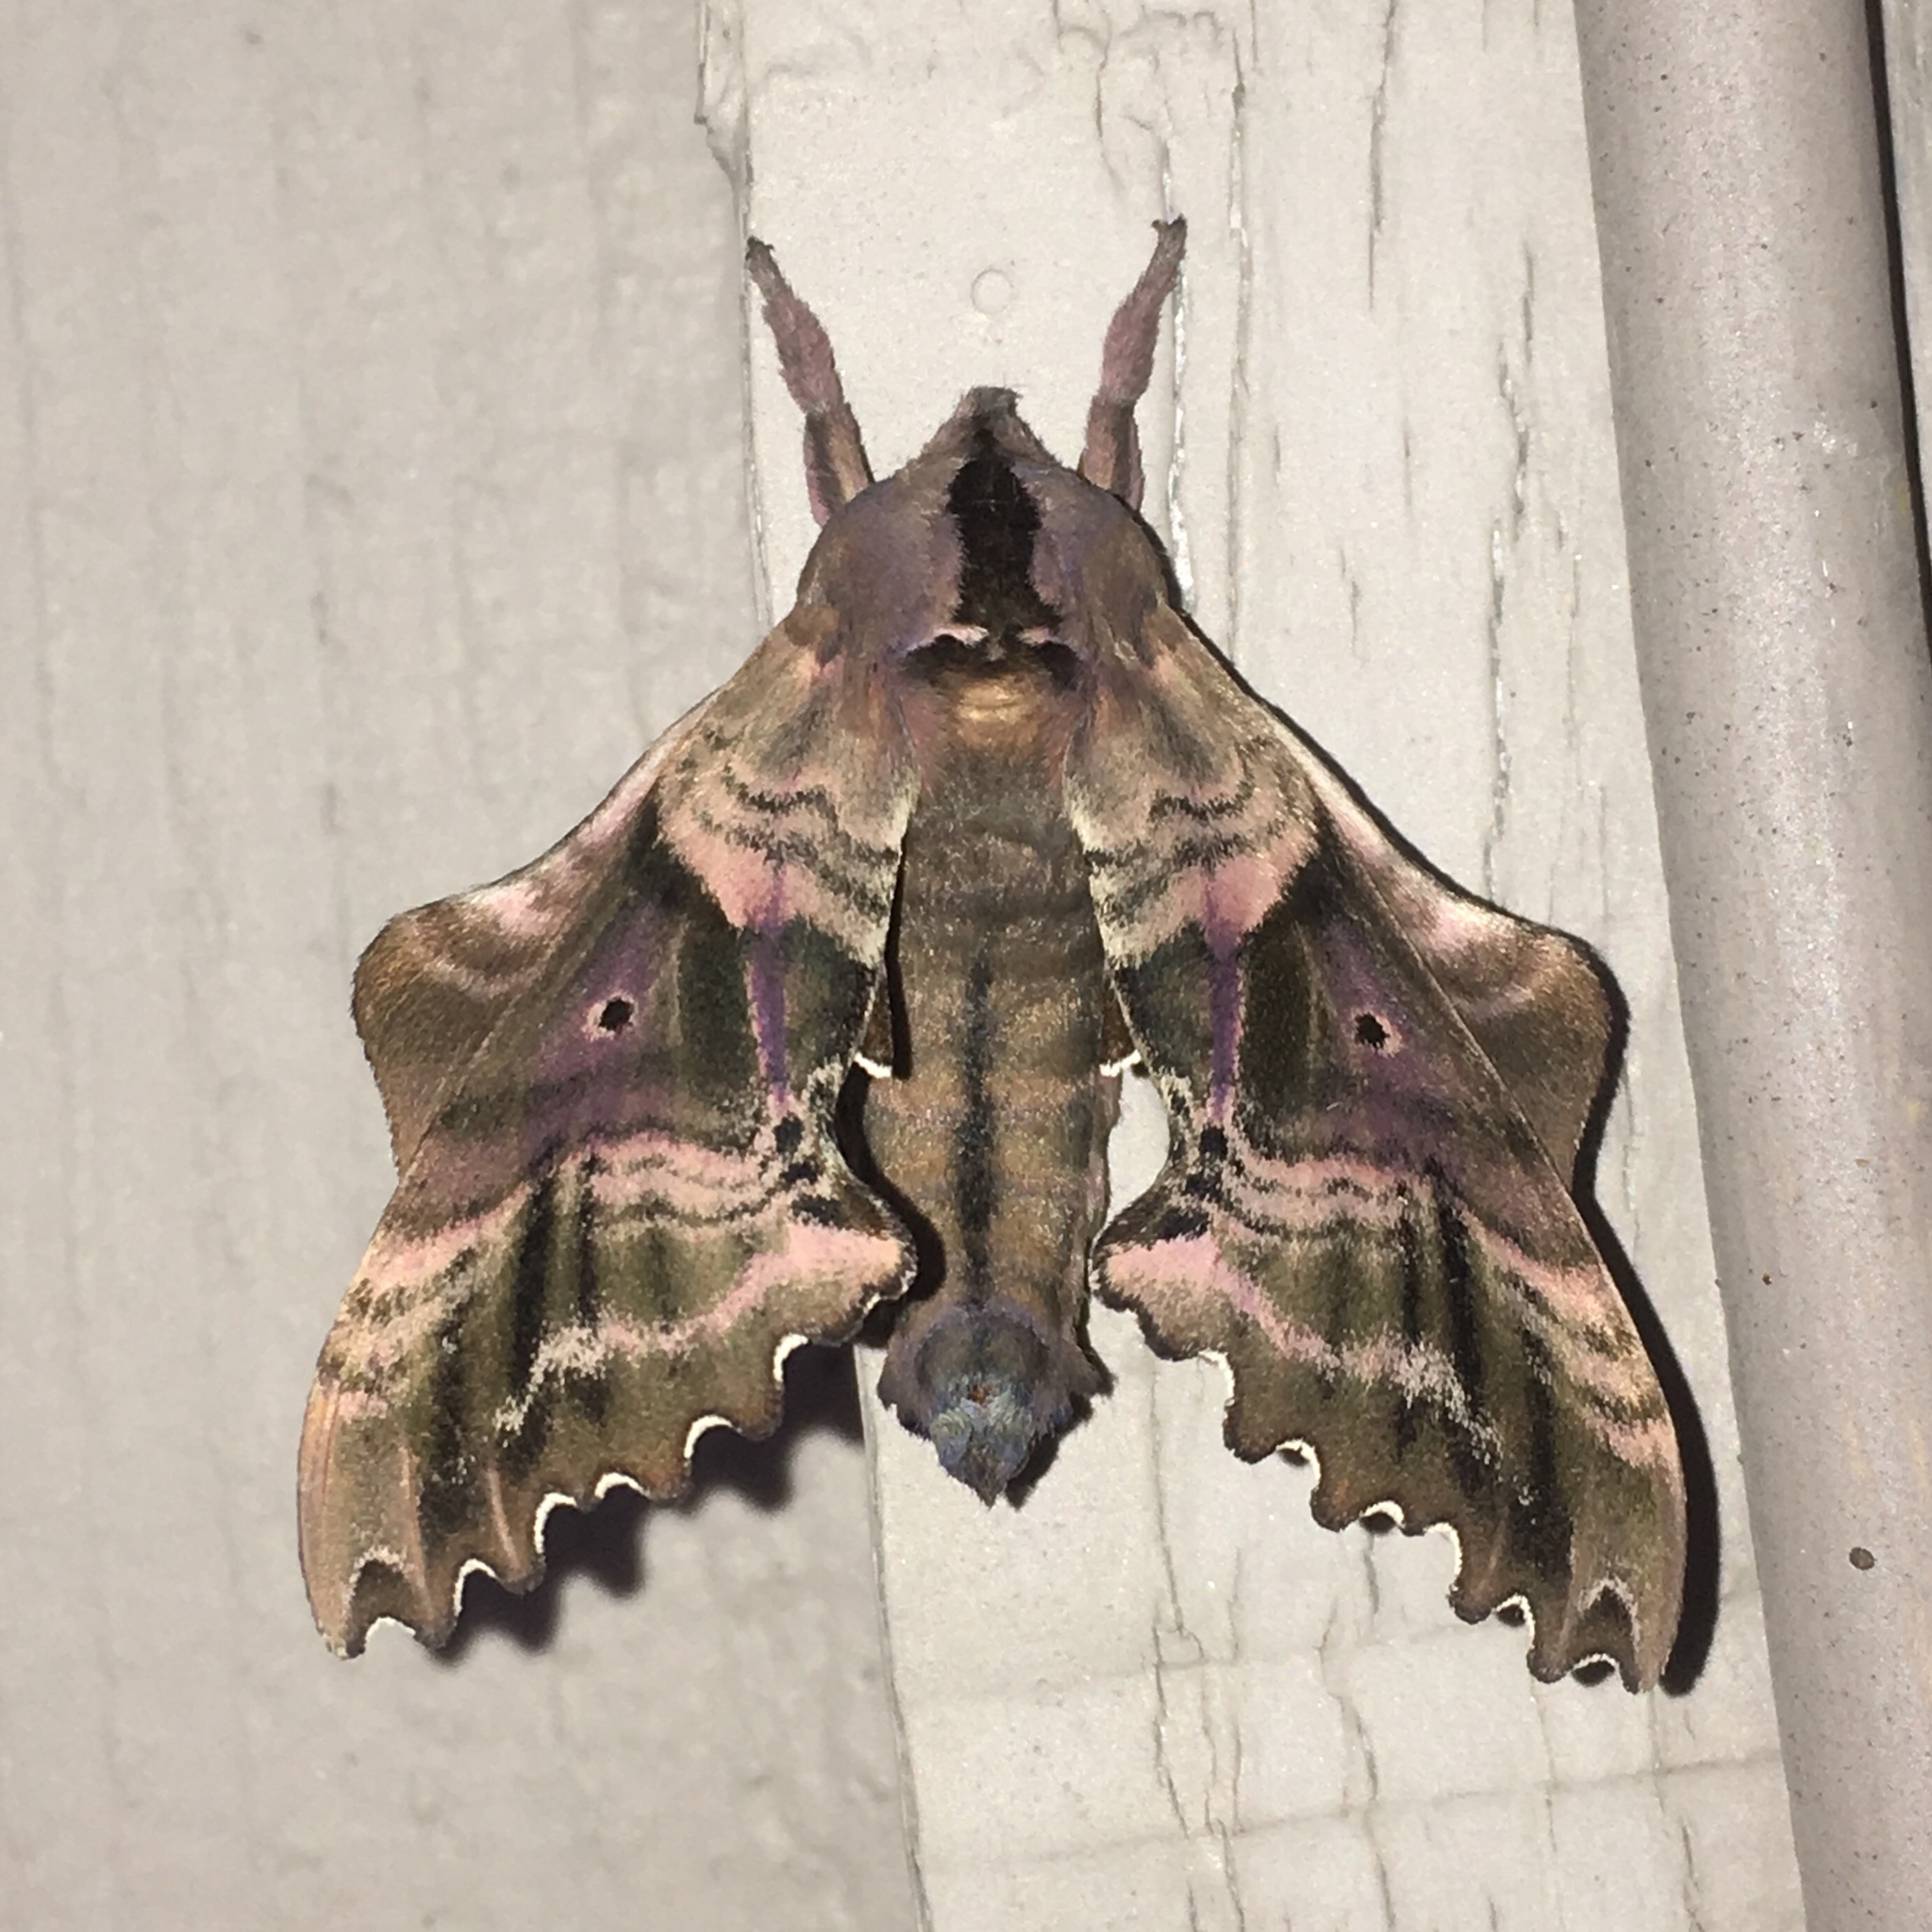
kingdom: Animalia
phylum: Arthropoda
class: Insecta
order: Lepidoptera
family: Sphingidae
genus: Paonias
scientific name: Paonias excaecata
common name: Blind-eyed sphinx
